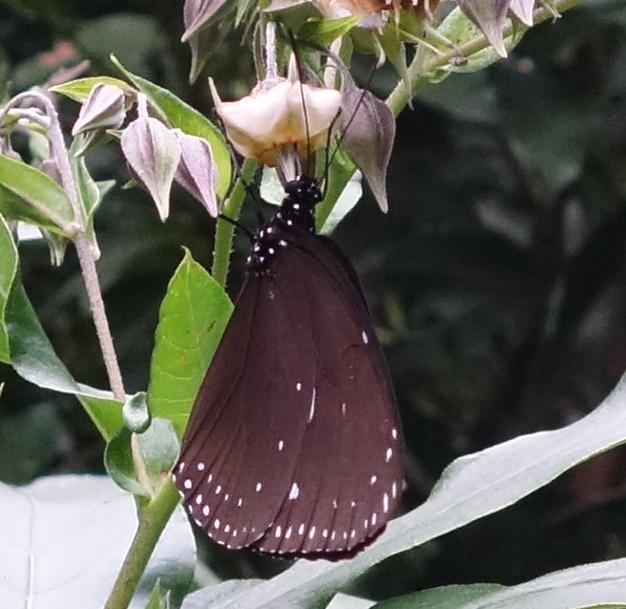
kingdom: Animalia
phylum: Arthropoda
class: Insecta
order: Lepidoptera
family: Nymphalidae
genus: Euploea
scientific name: Euploea tulliolus
